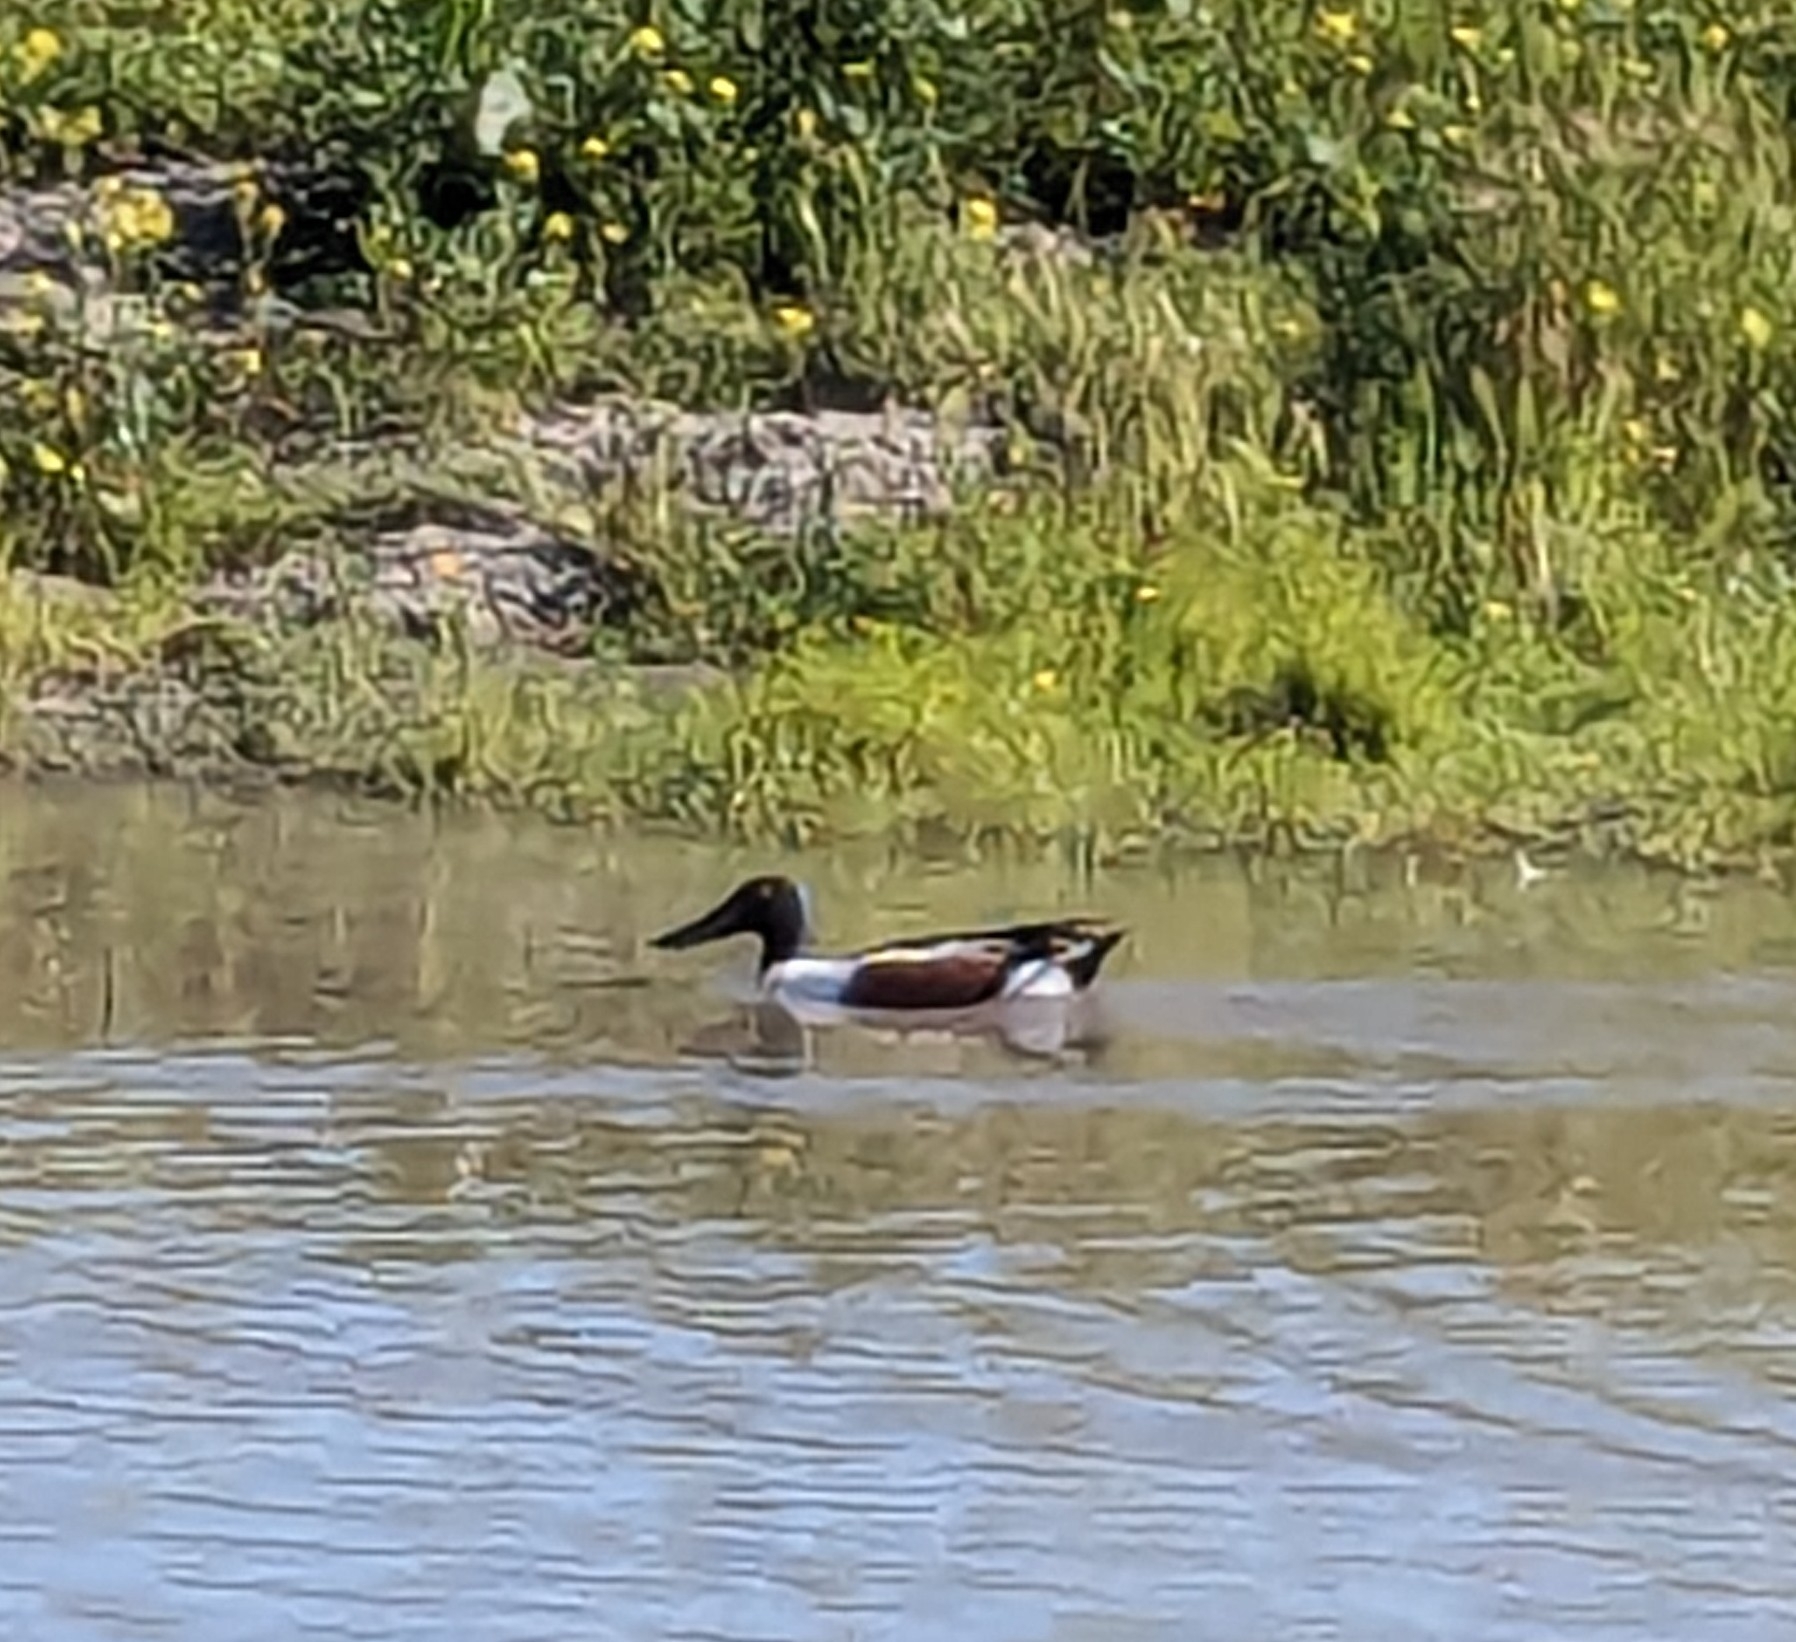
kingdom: Animalia
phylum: Chordata
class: Aves
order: Anseriformes
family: Anatidae
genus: Spatula
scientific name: Spatula clypeata
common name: Northern shoveler
